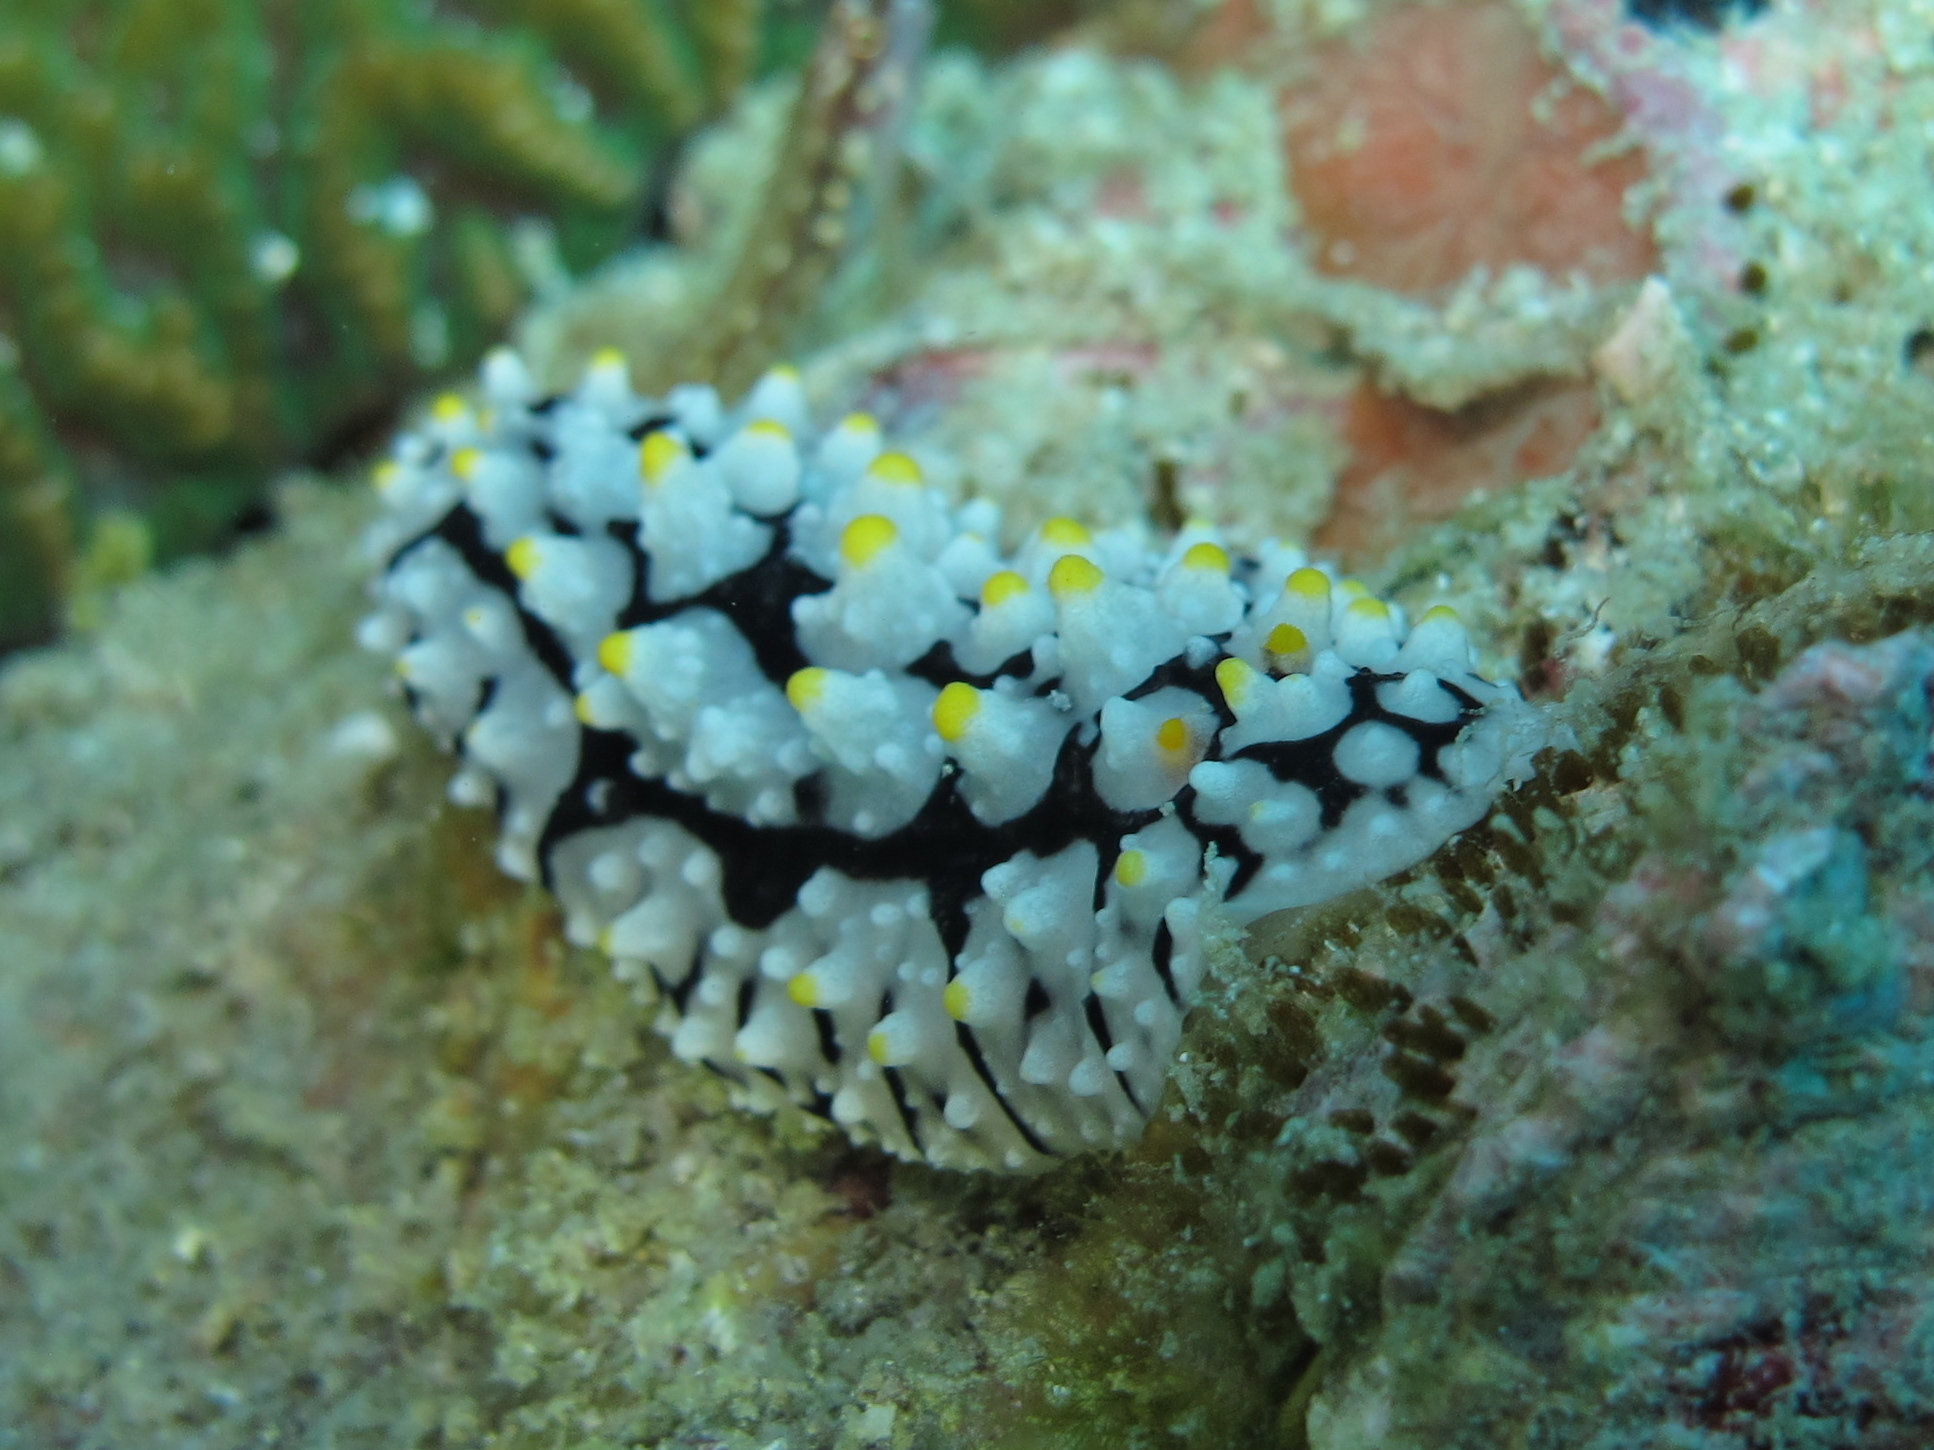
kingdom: Animalia
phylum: Mollusca
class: Gastropoda
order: Nudibranchia
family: Phyllidiidae
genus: Phyllidia
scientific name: Phyllidia elegans
